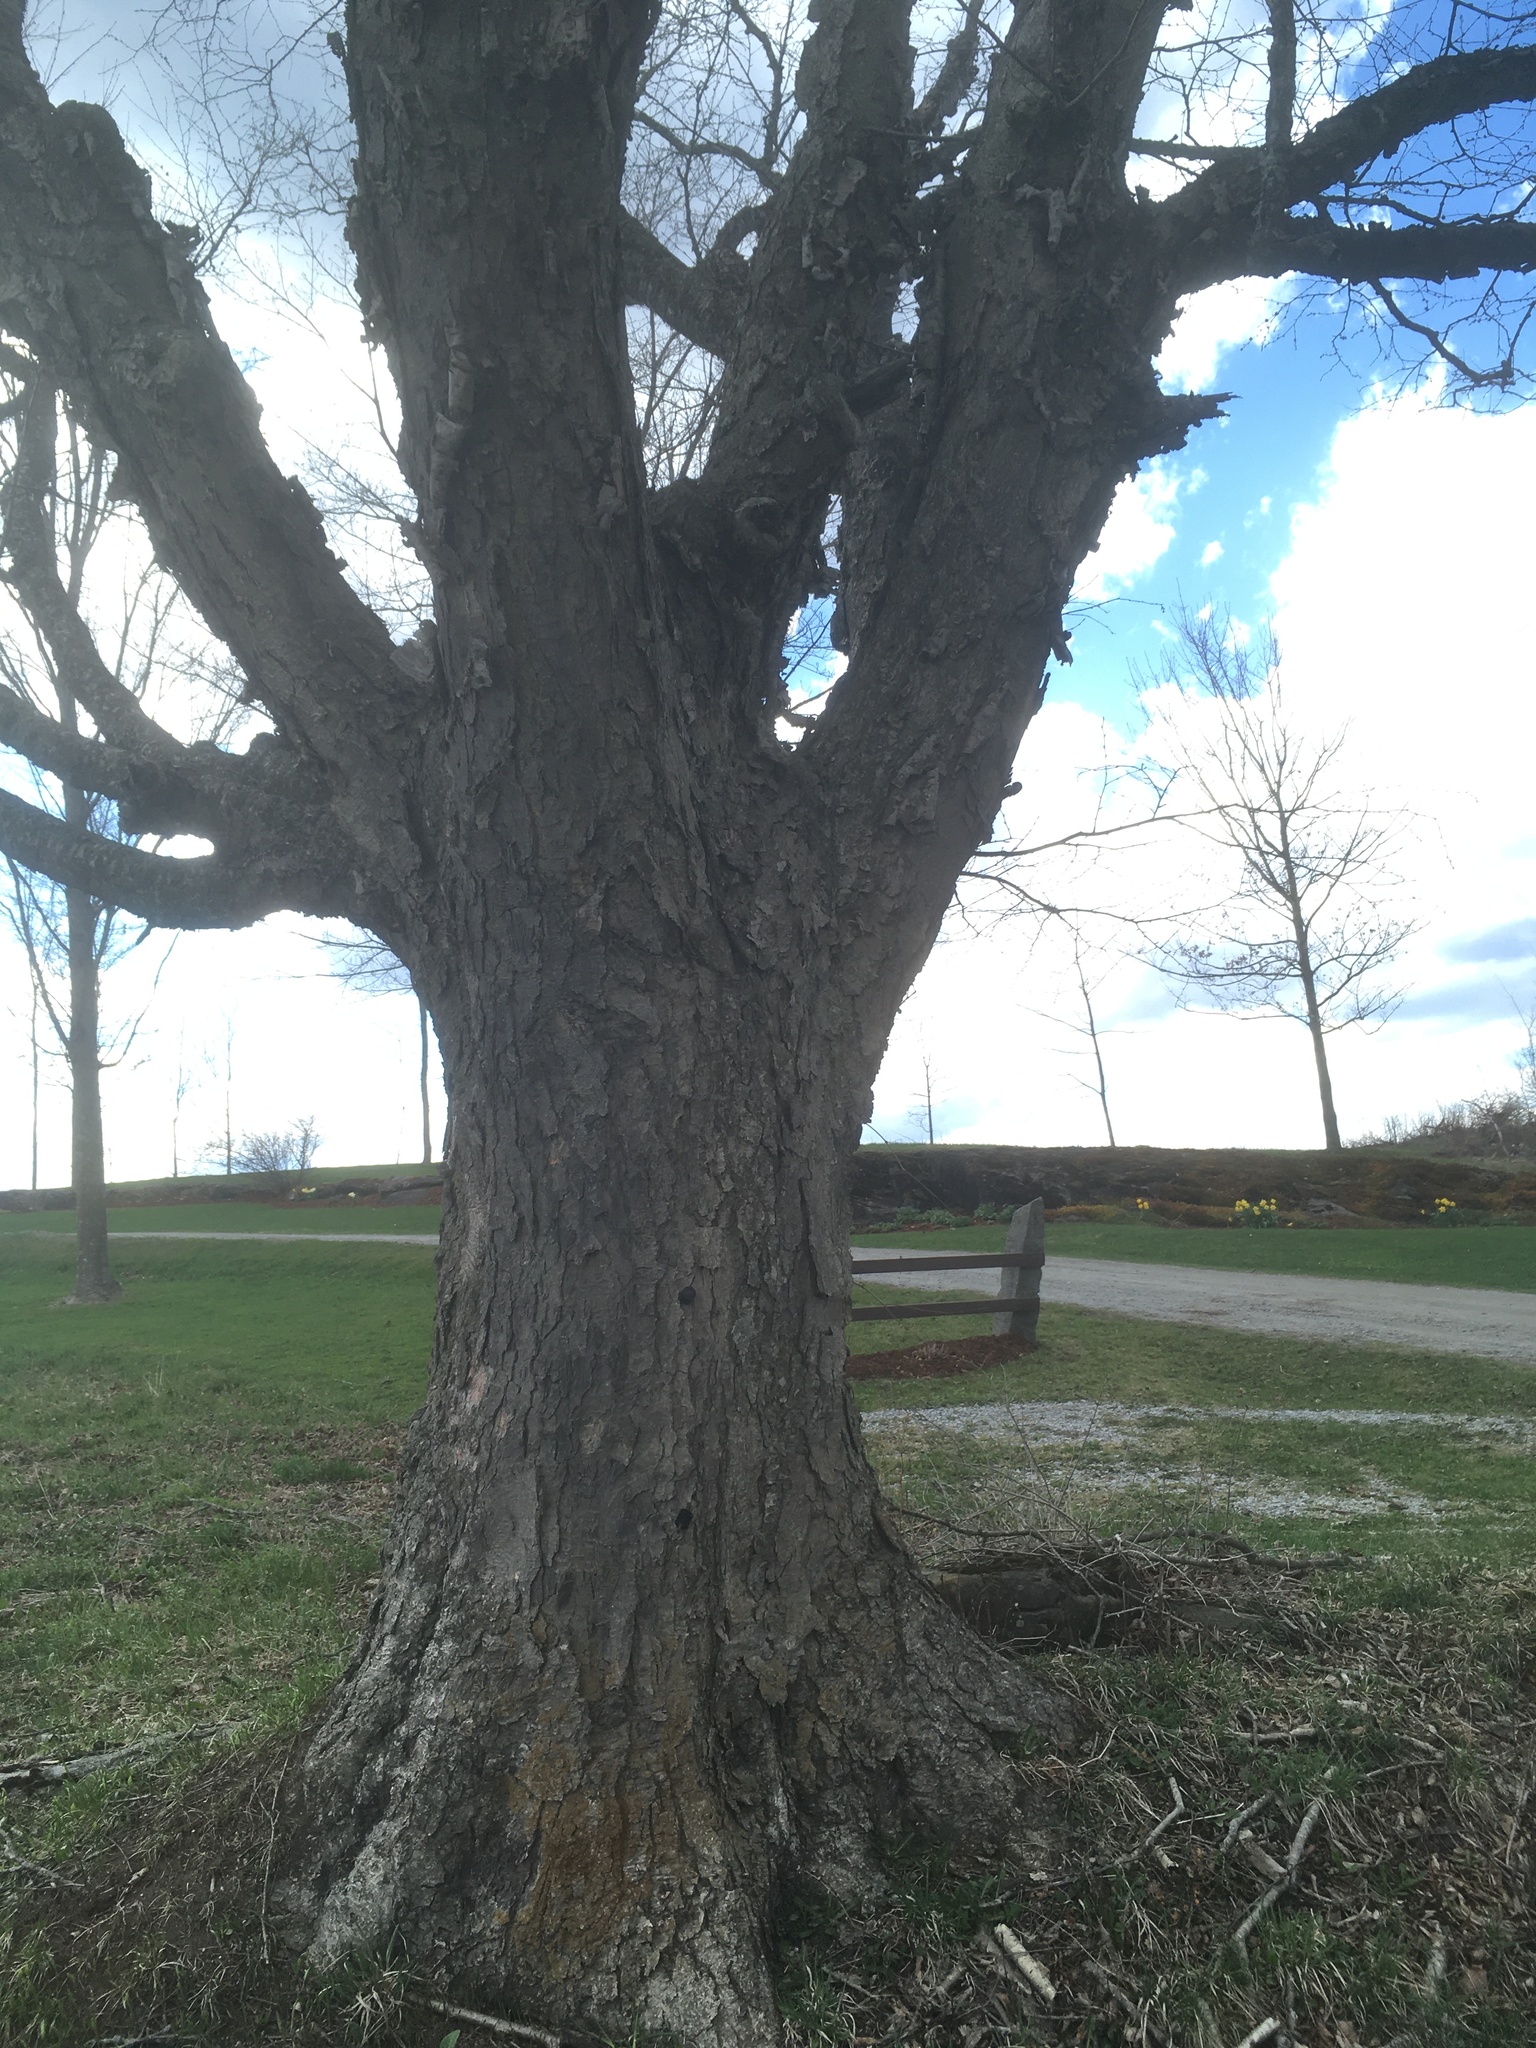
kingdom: Plantae
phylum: Tracheophyta
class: Magnoliopsida
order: Fagales
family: Betulaceae
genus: Betula
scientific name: Betula alleghaniensis
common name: Yellow birch
